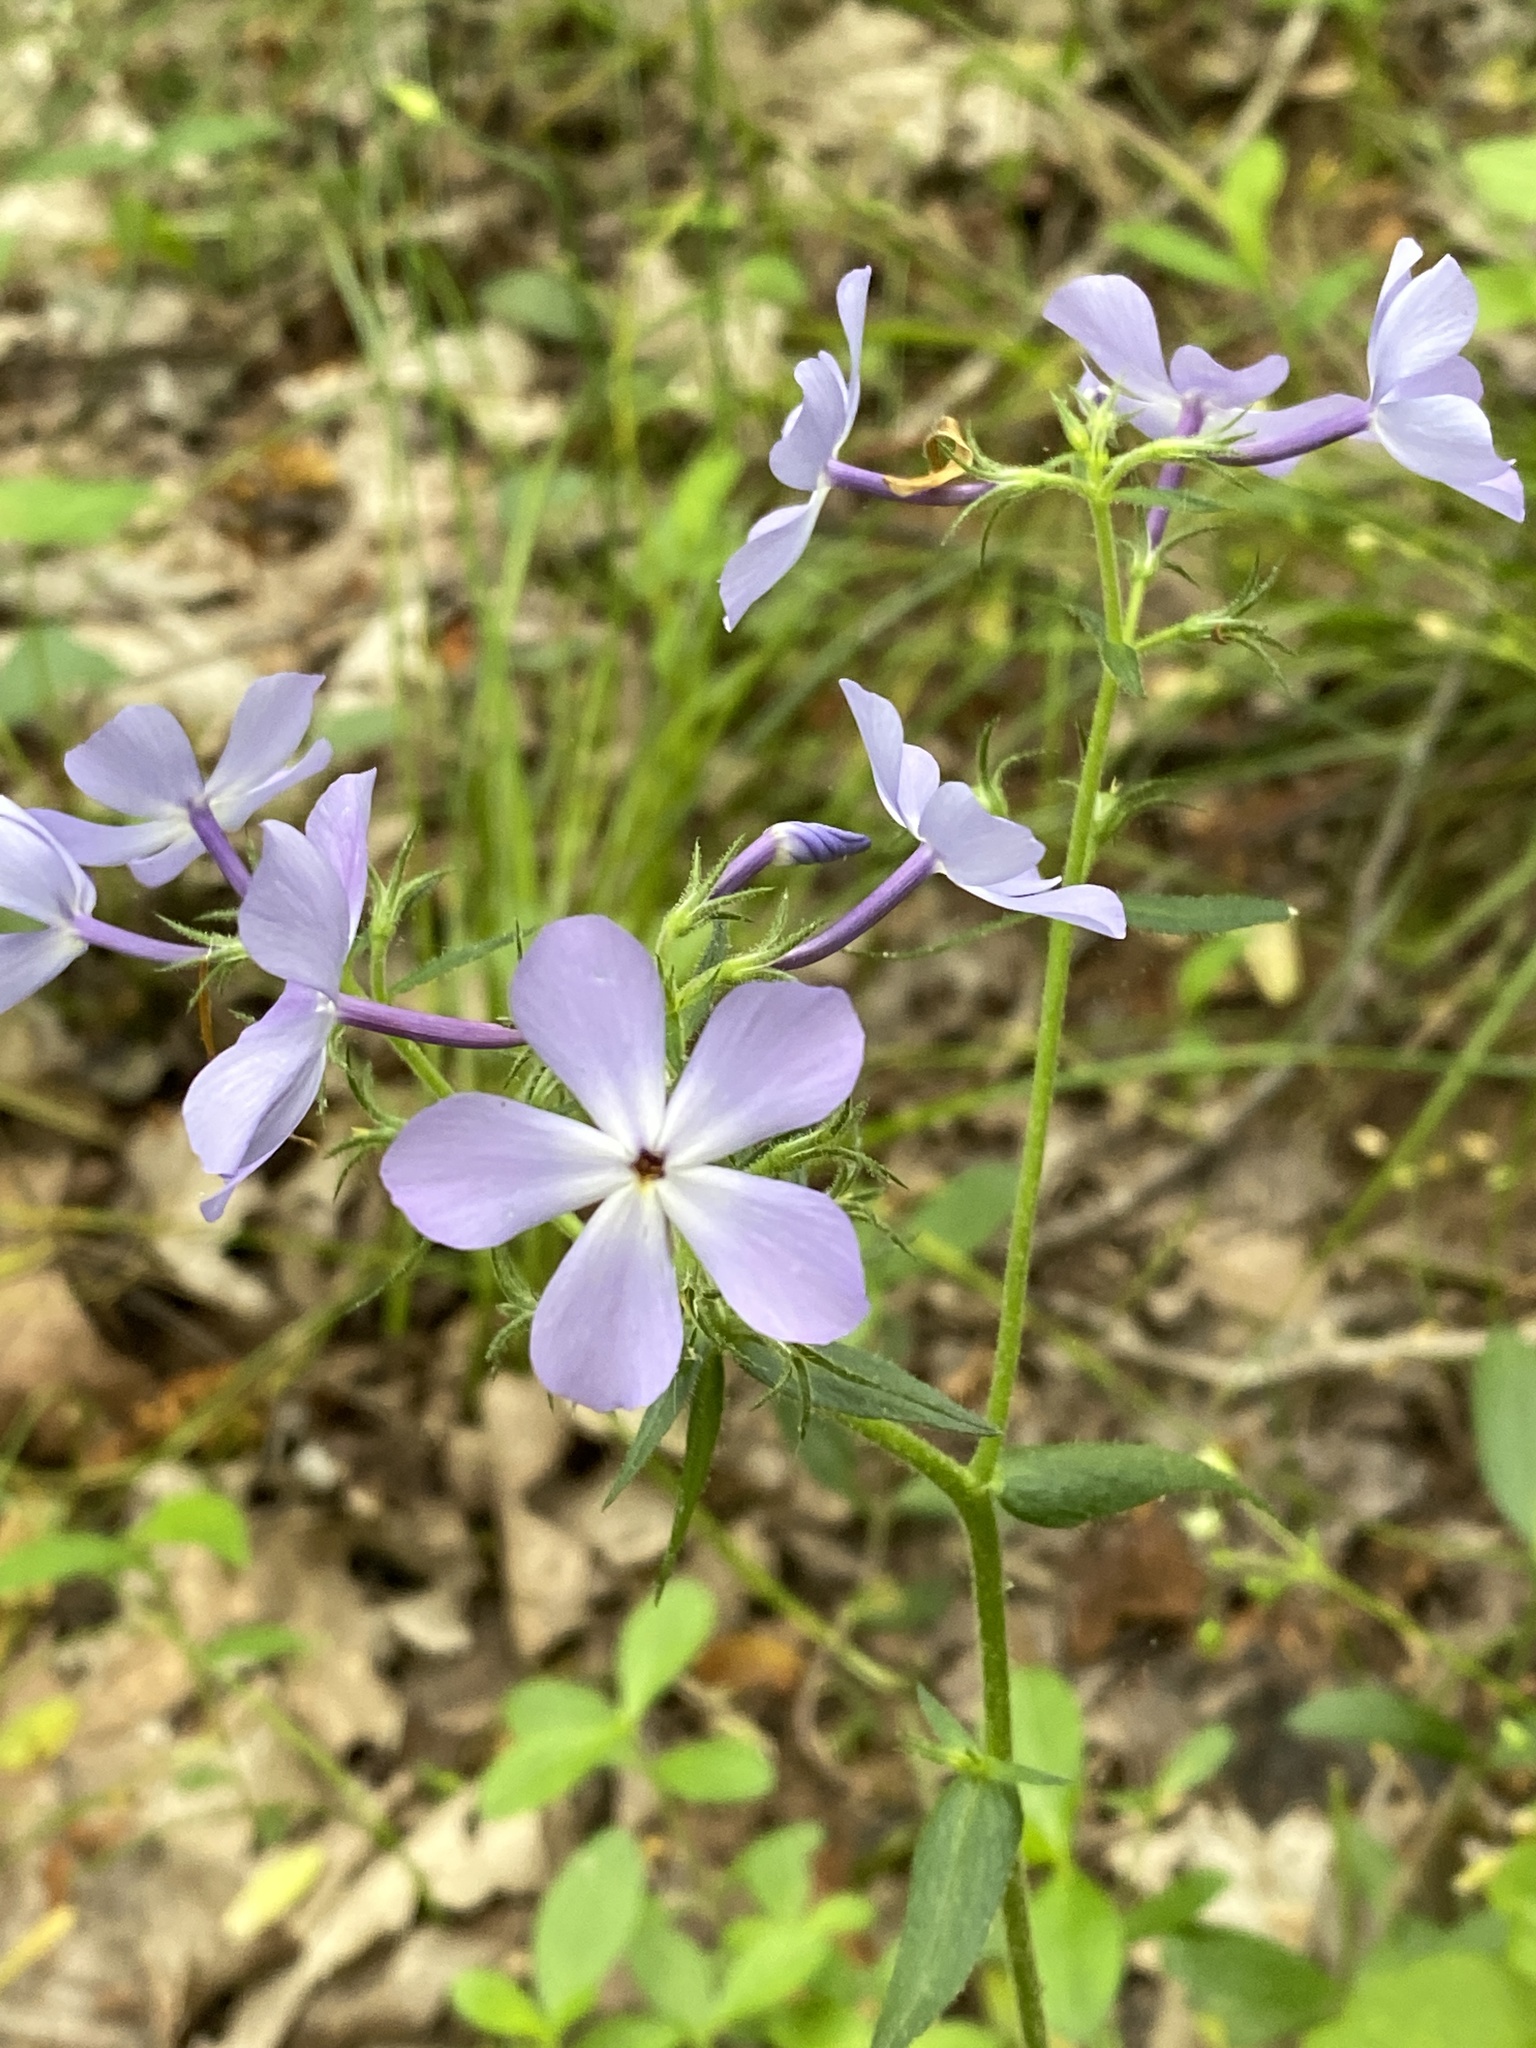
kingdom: Plantae
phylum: Tracheophyta
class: Magnoliopsida
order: Ericales
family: Polemoniaceae
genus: Phlox
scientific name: Phlox divaricata
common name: Blue phlox
